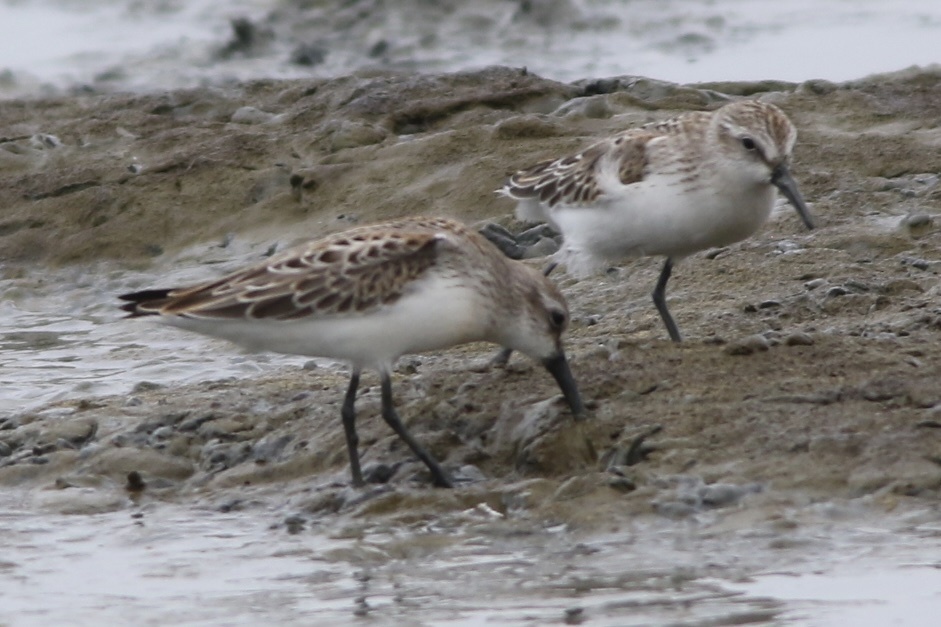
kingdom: Animalia
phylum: Chordata
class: Aves
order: Charadriiformes
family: Scolopacidae
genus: Calidris
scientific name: Calidris mauri
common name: Western sandpiper
